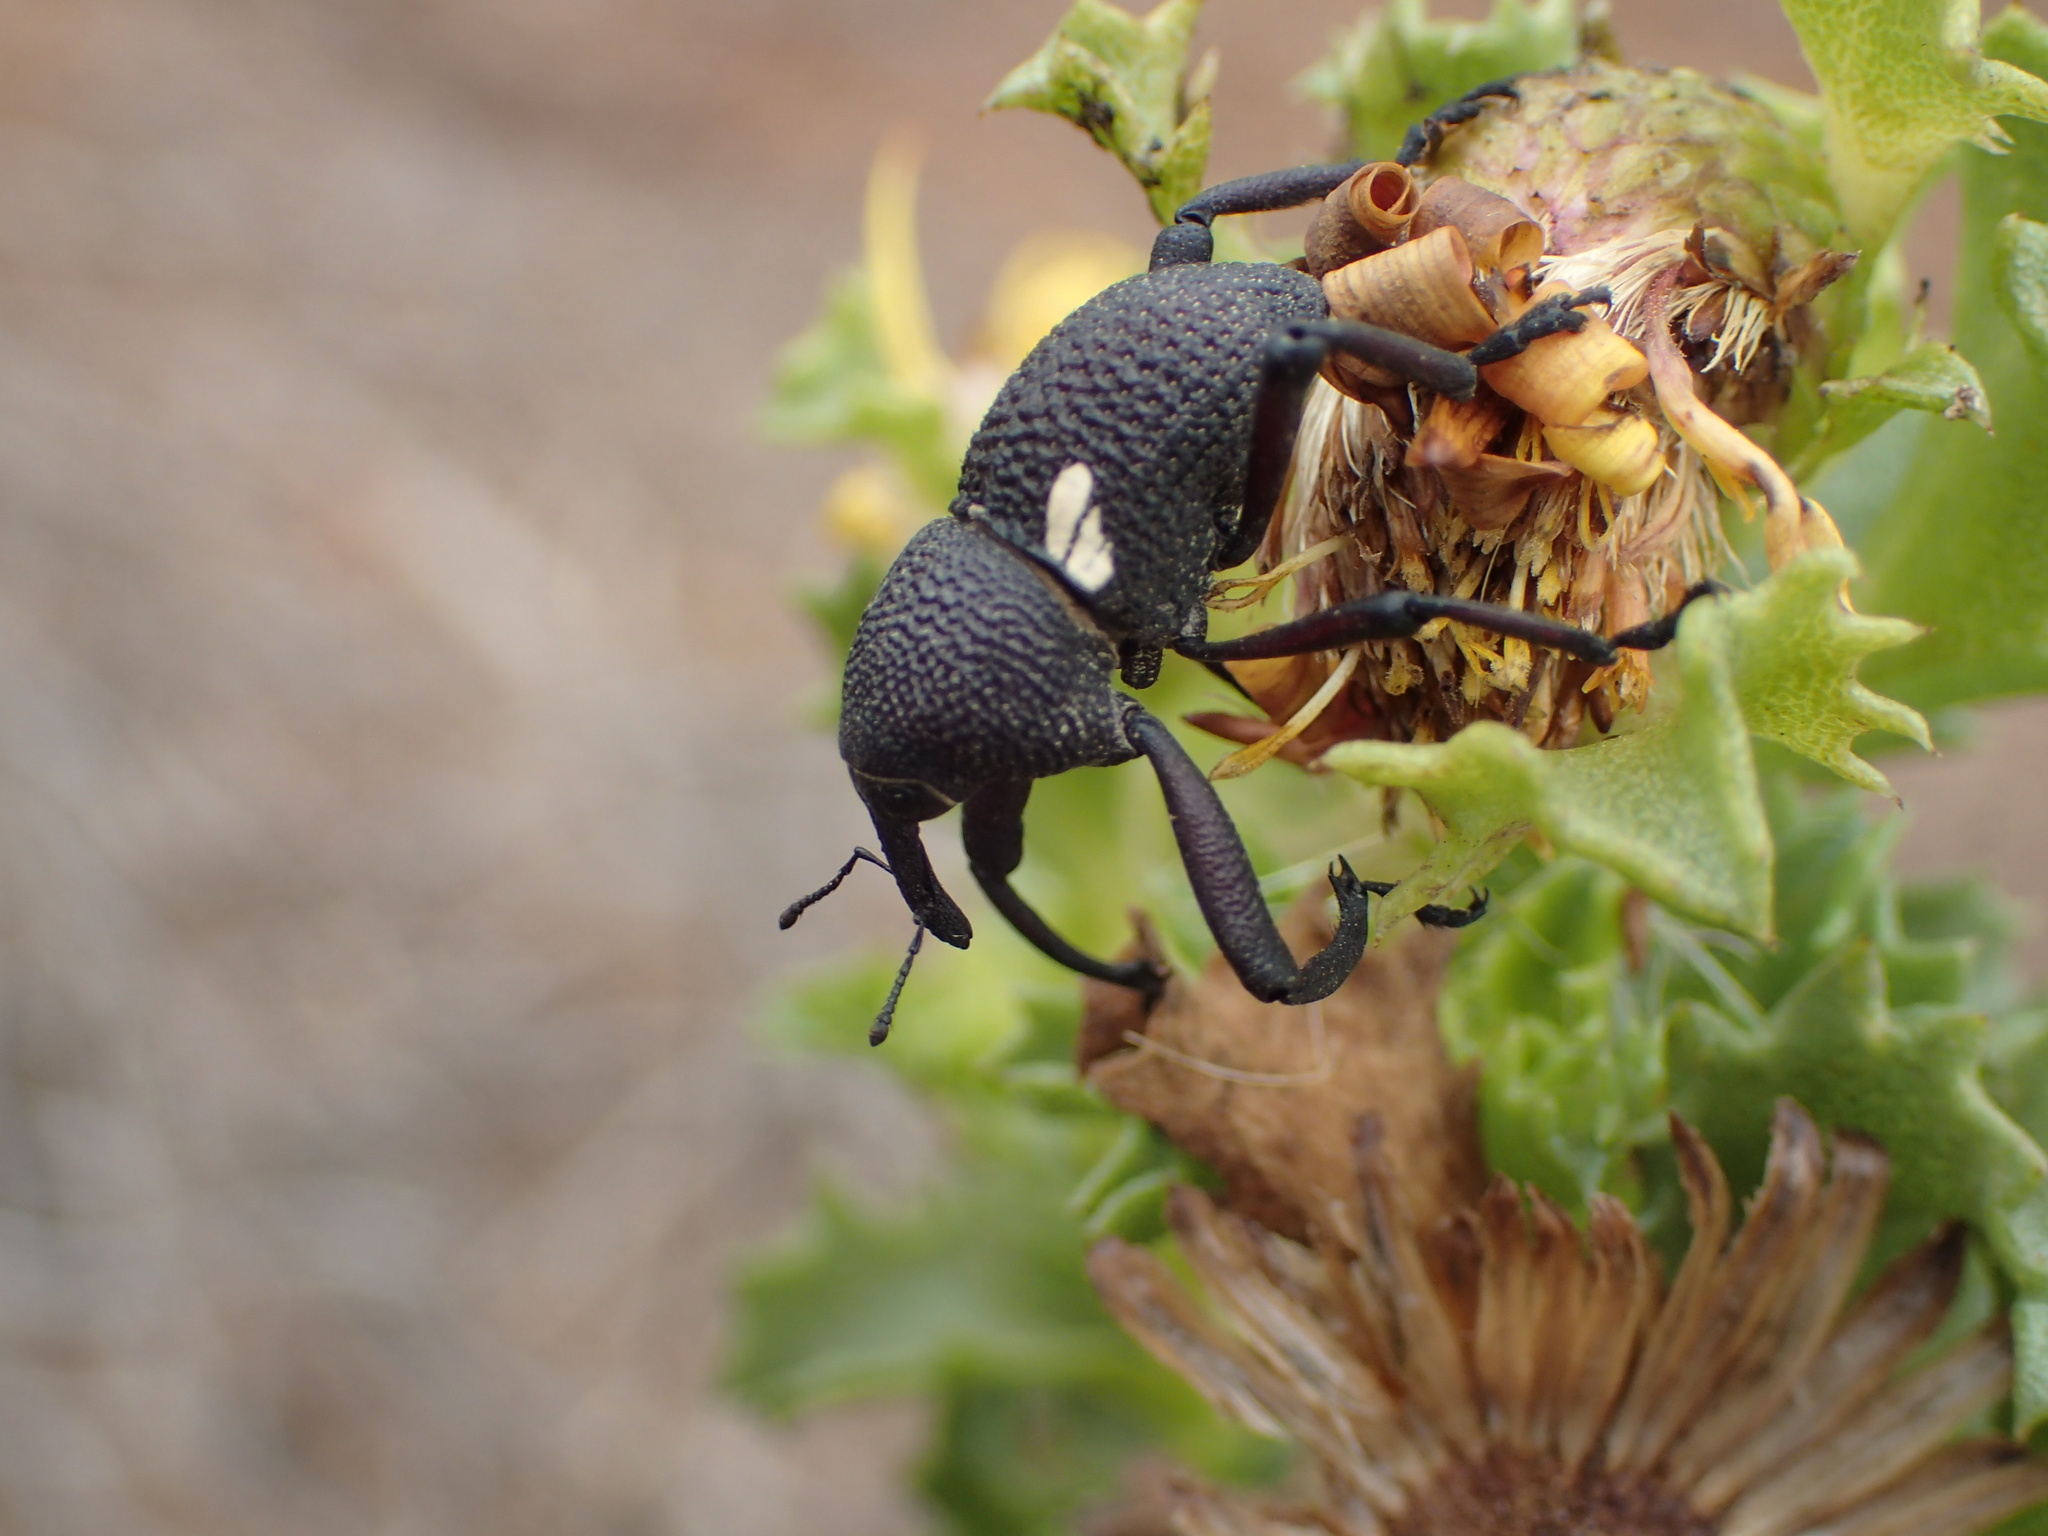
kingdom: Animalia
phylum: Arthropoda
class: Insecta
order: Coleoptera
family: Curculionidae
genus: Rhyephenes
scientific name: Rhyephenes gayi
